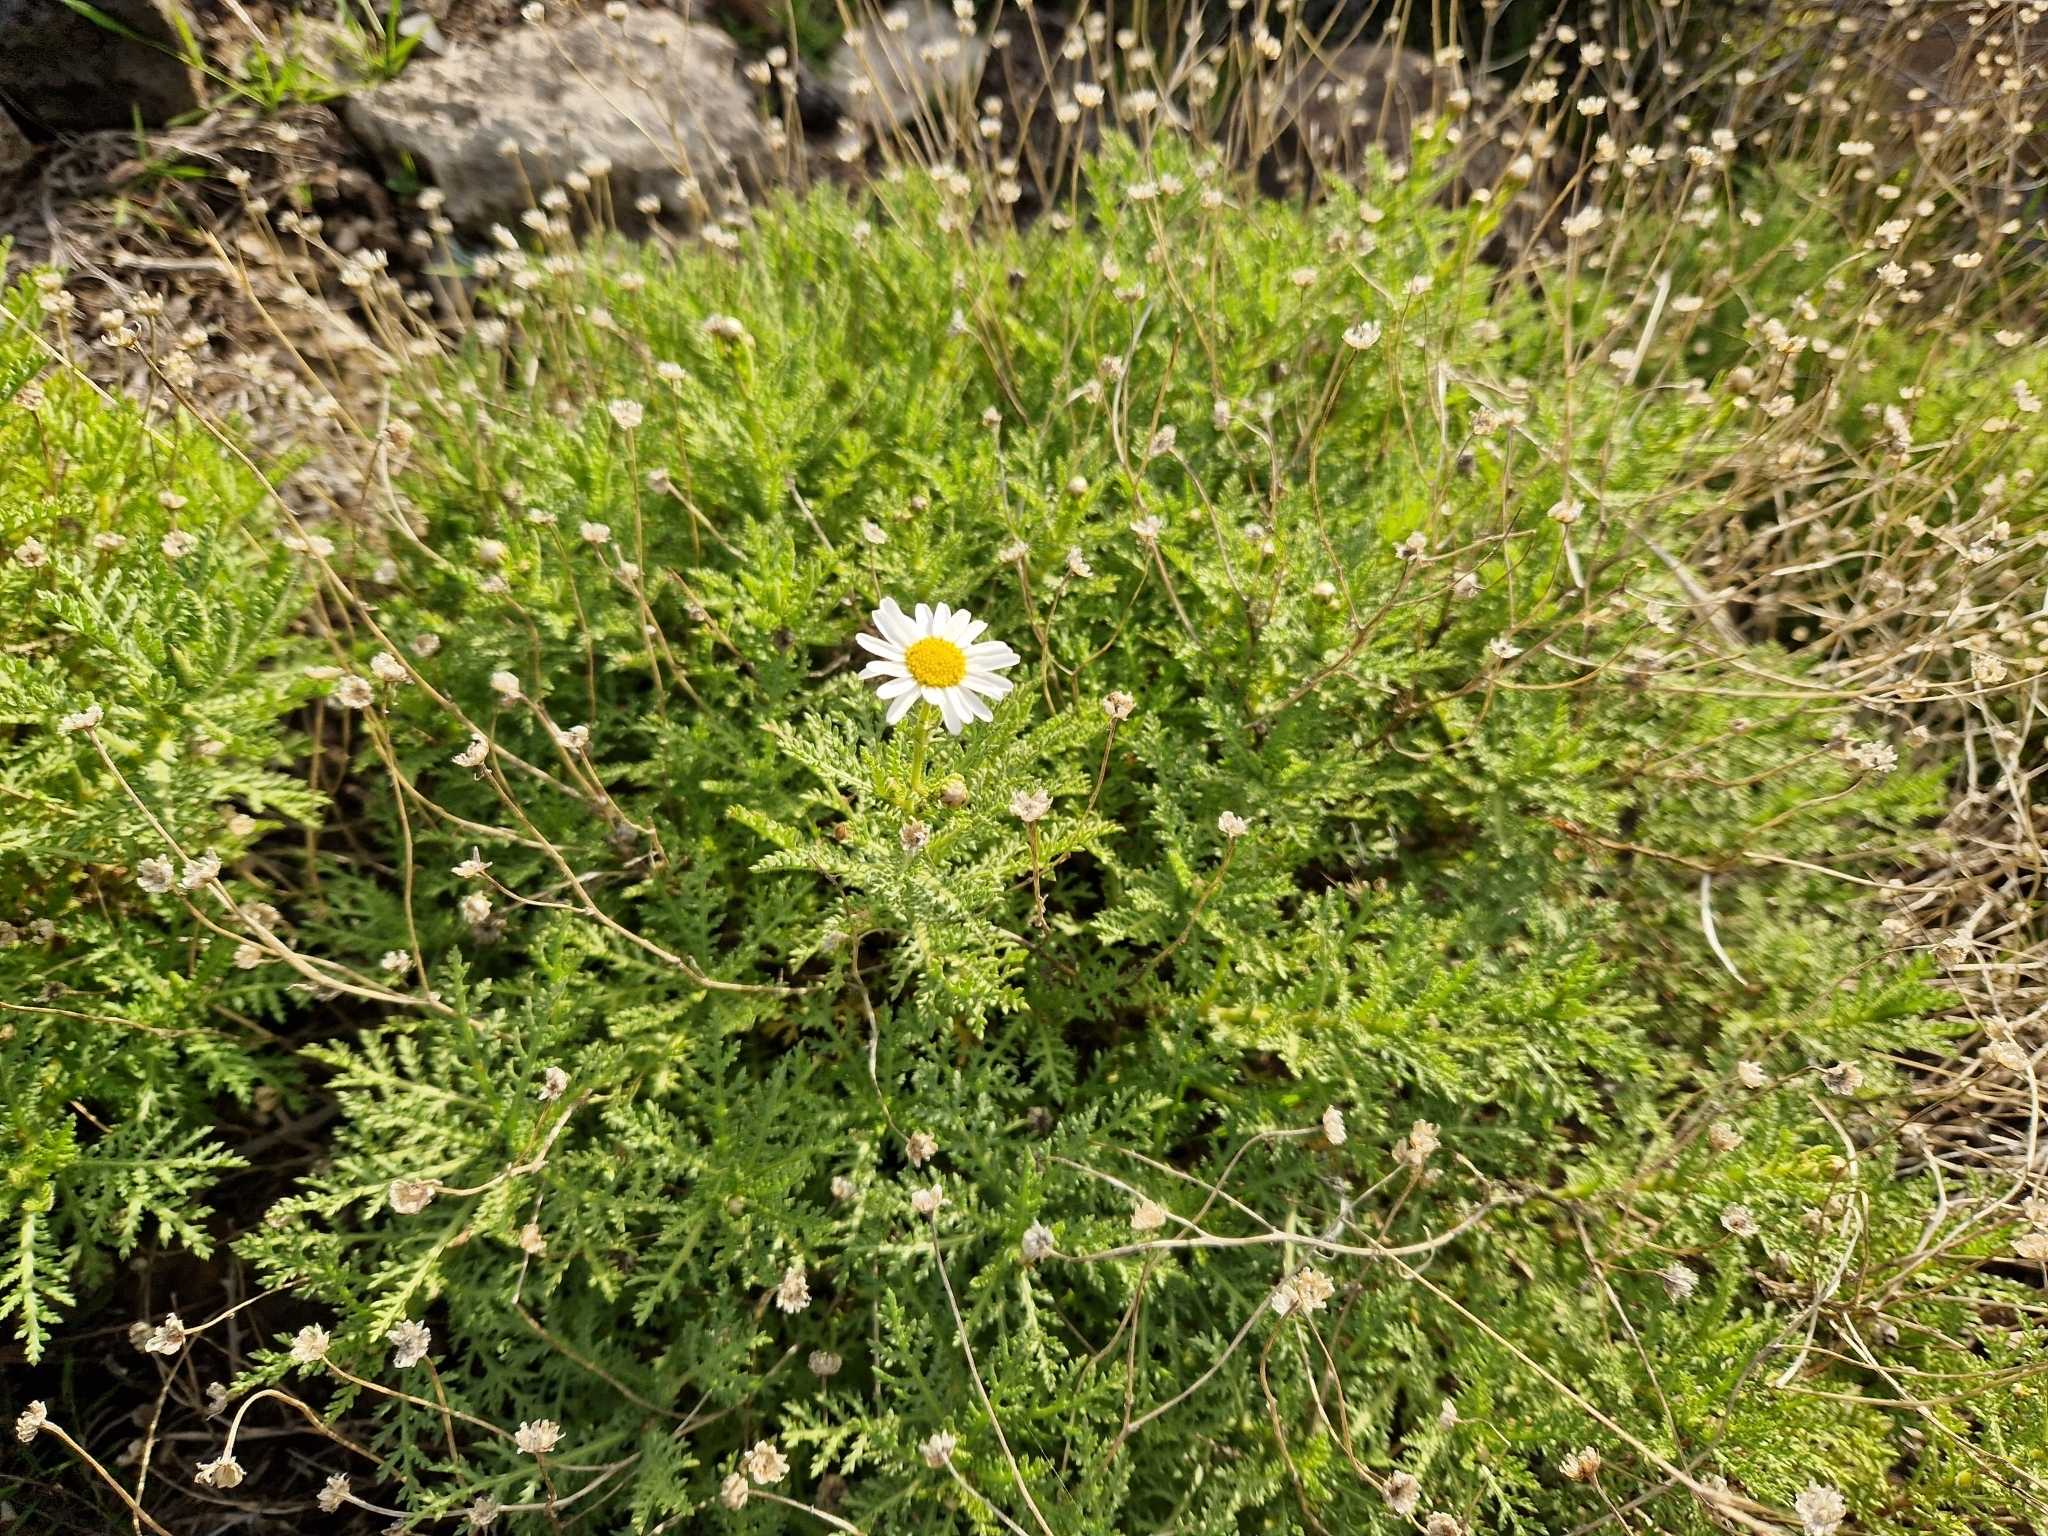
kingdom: Plantae
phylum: Tracheophyta
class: Magnoliopsida
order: Asterales
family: Asteraceae
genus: Argyranthemum
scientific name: Argyranthemum tenerifae
